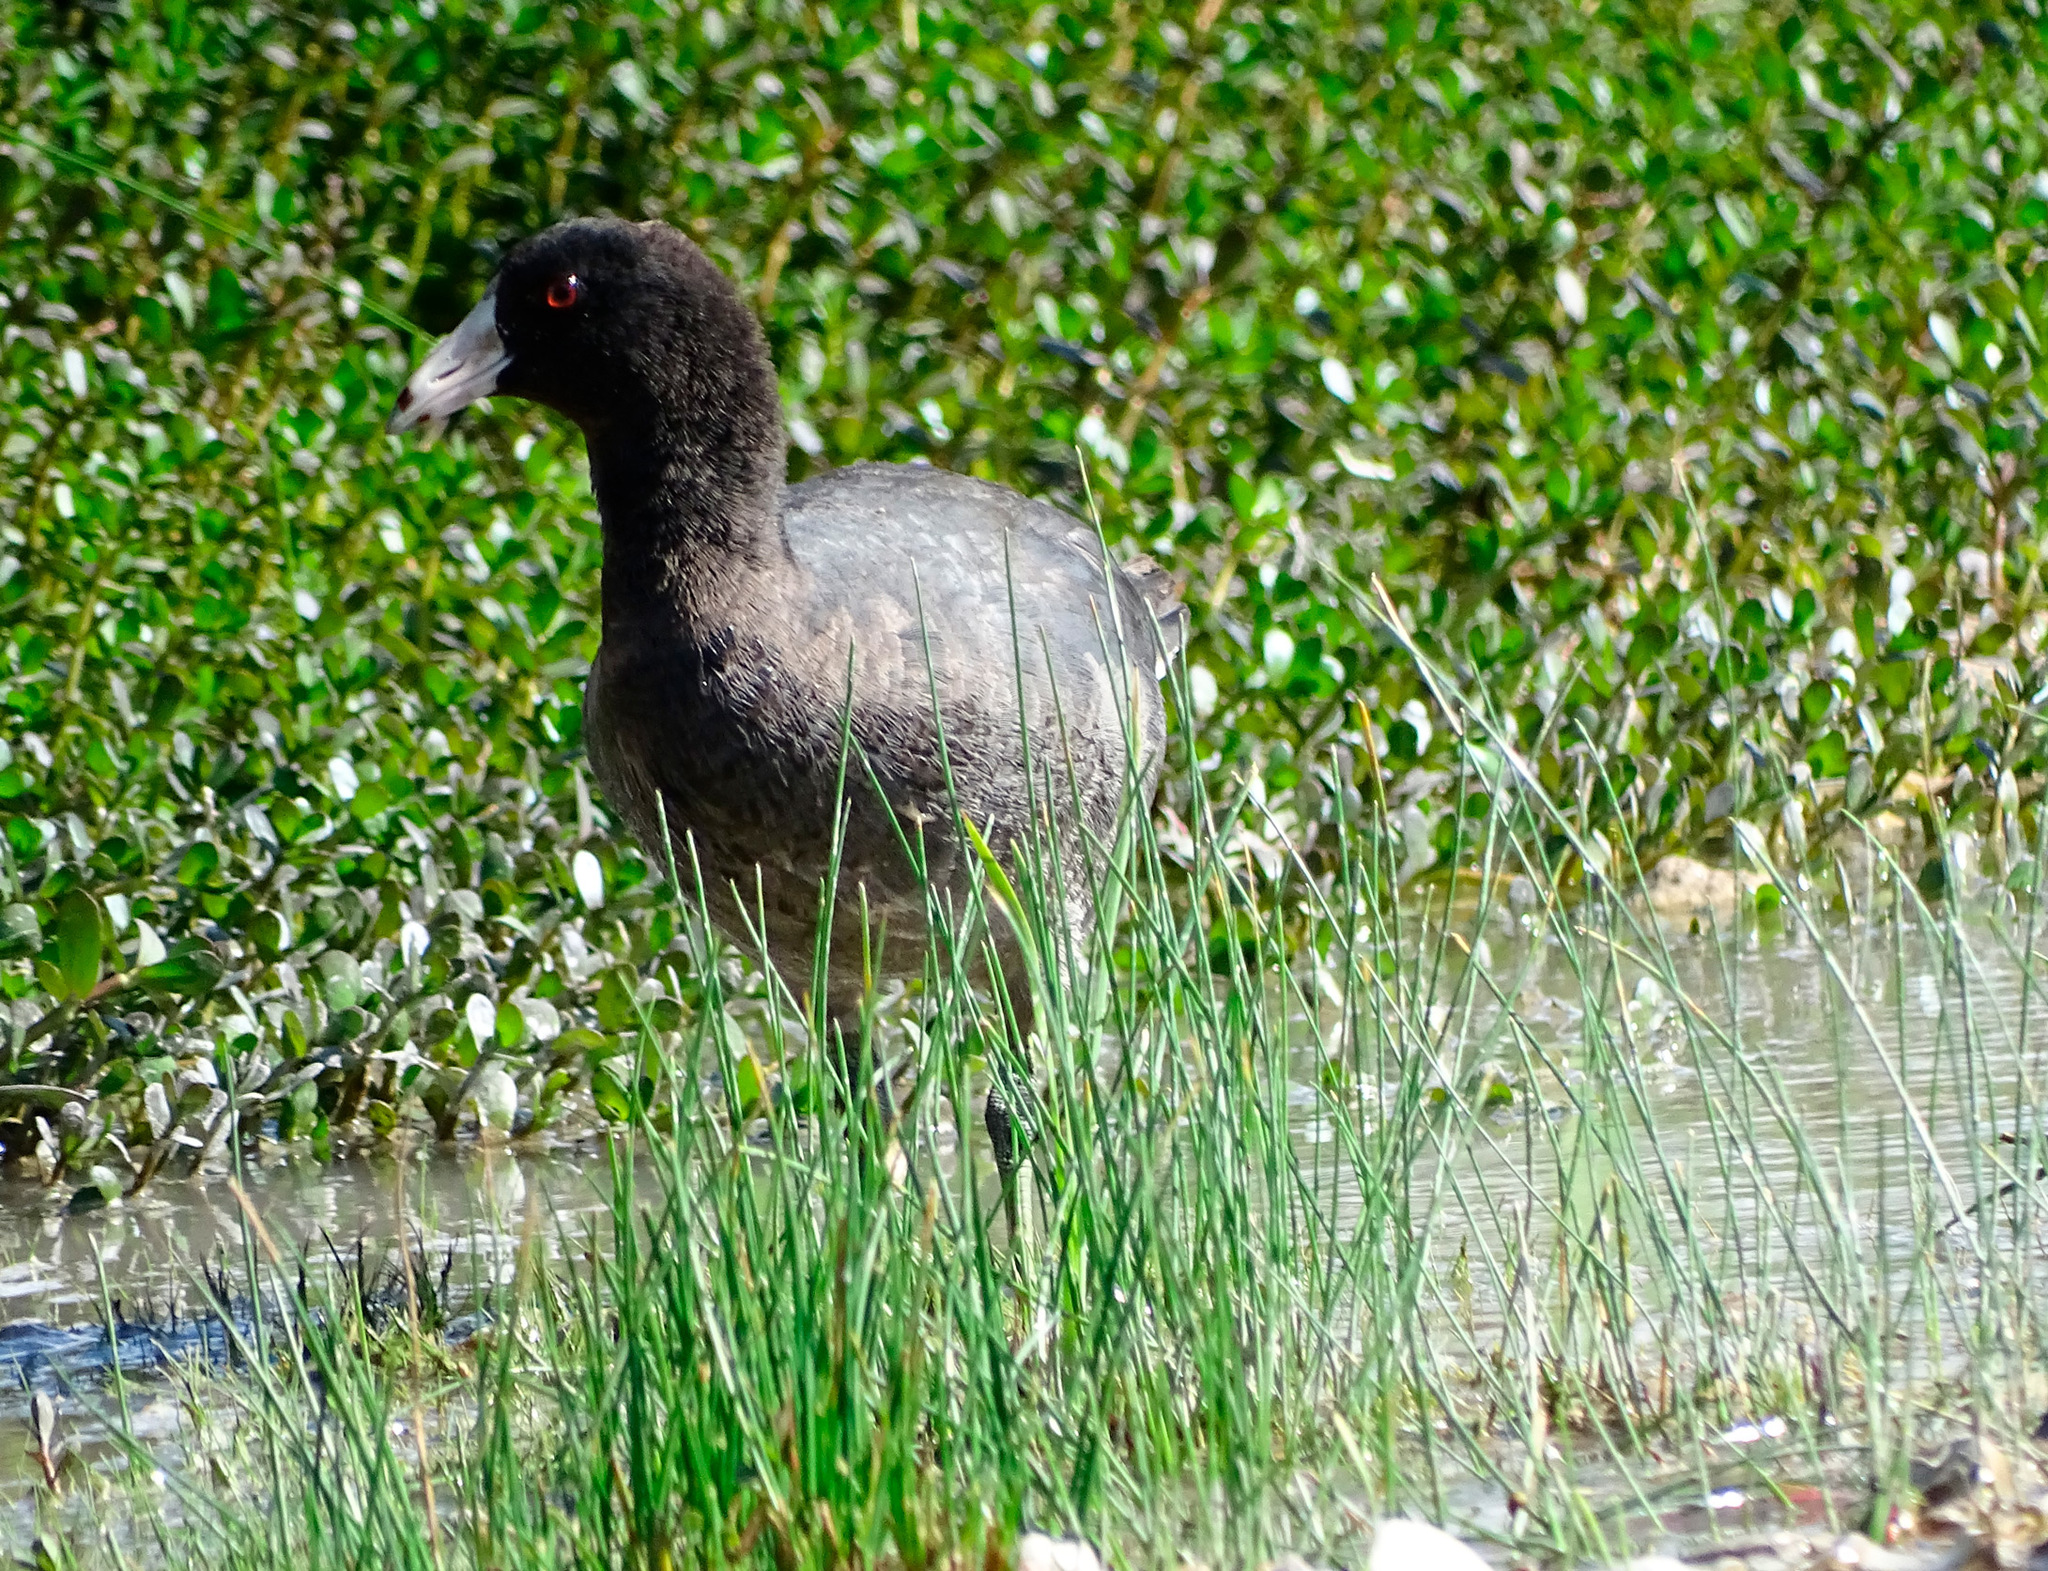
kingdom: Animalia
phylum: Chordata
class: Aves
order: Gruiformes
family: Rallidae
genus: Fulica
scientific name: Fulica americana
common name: American coot
